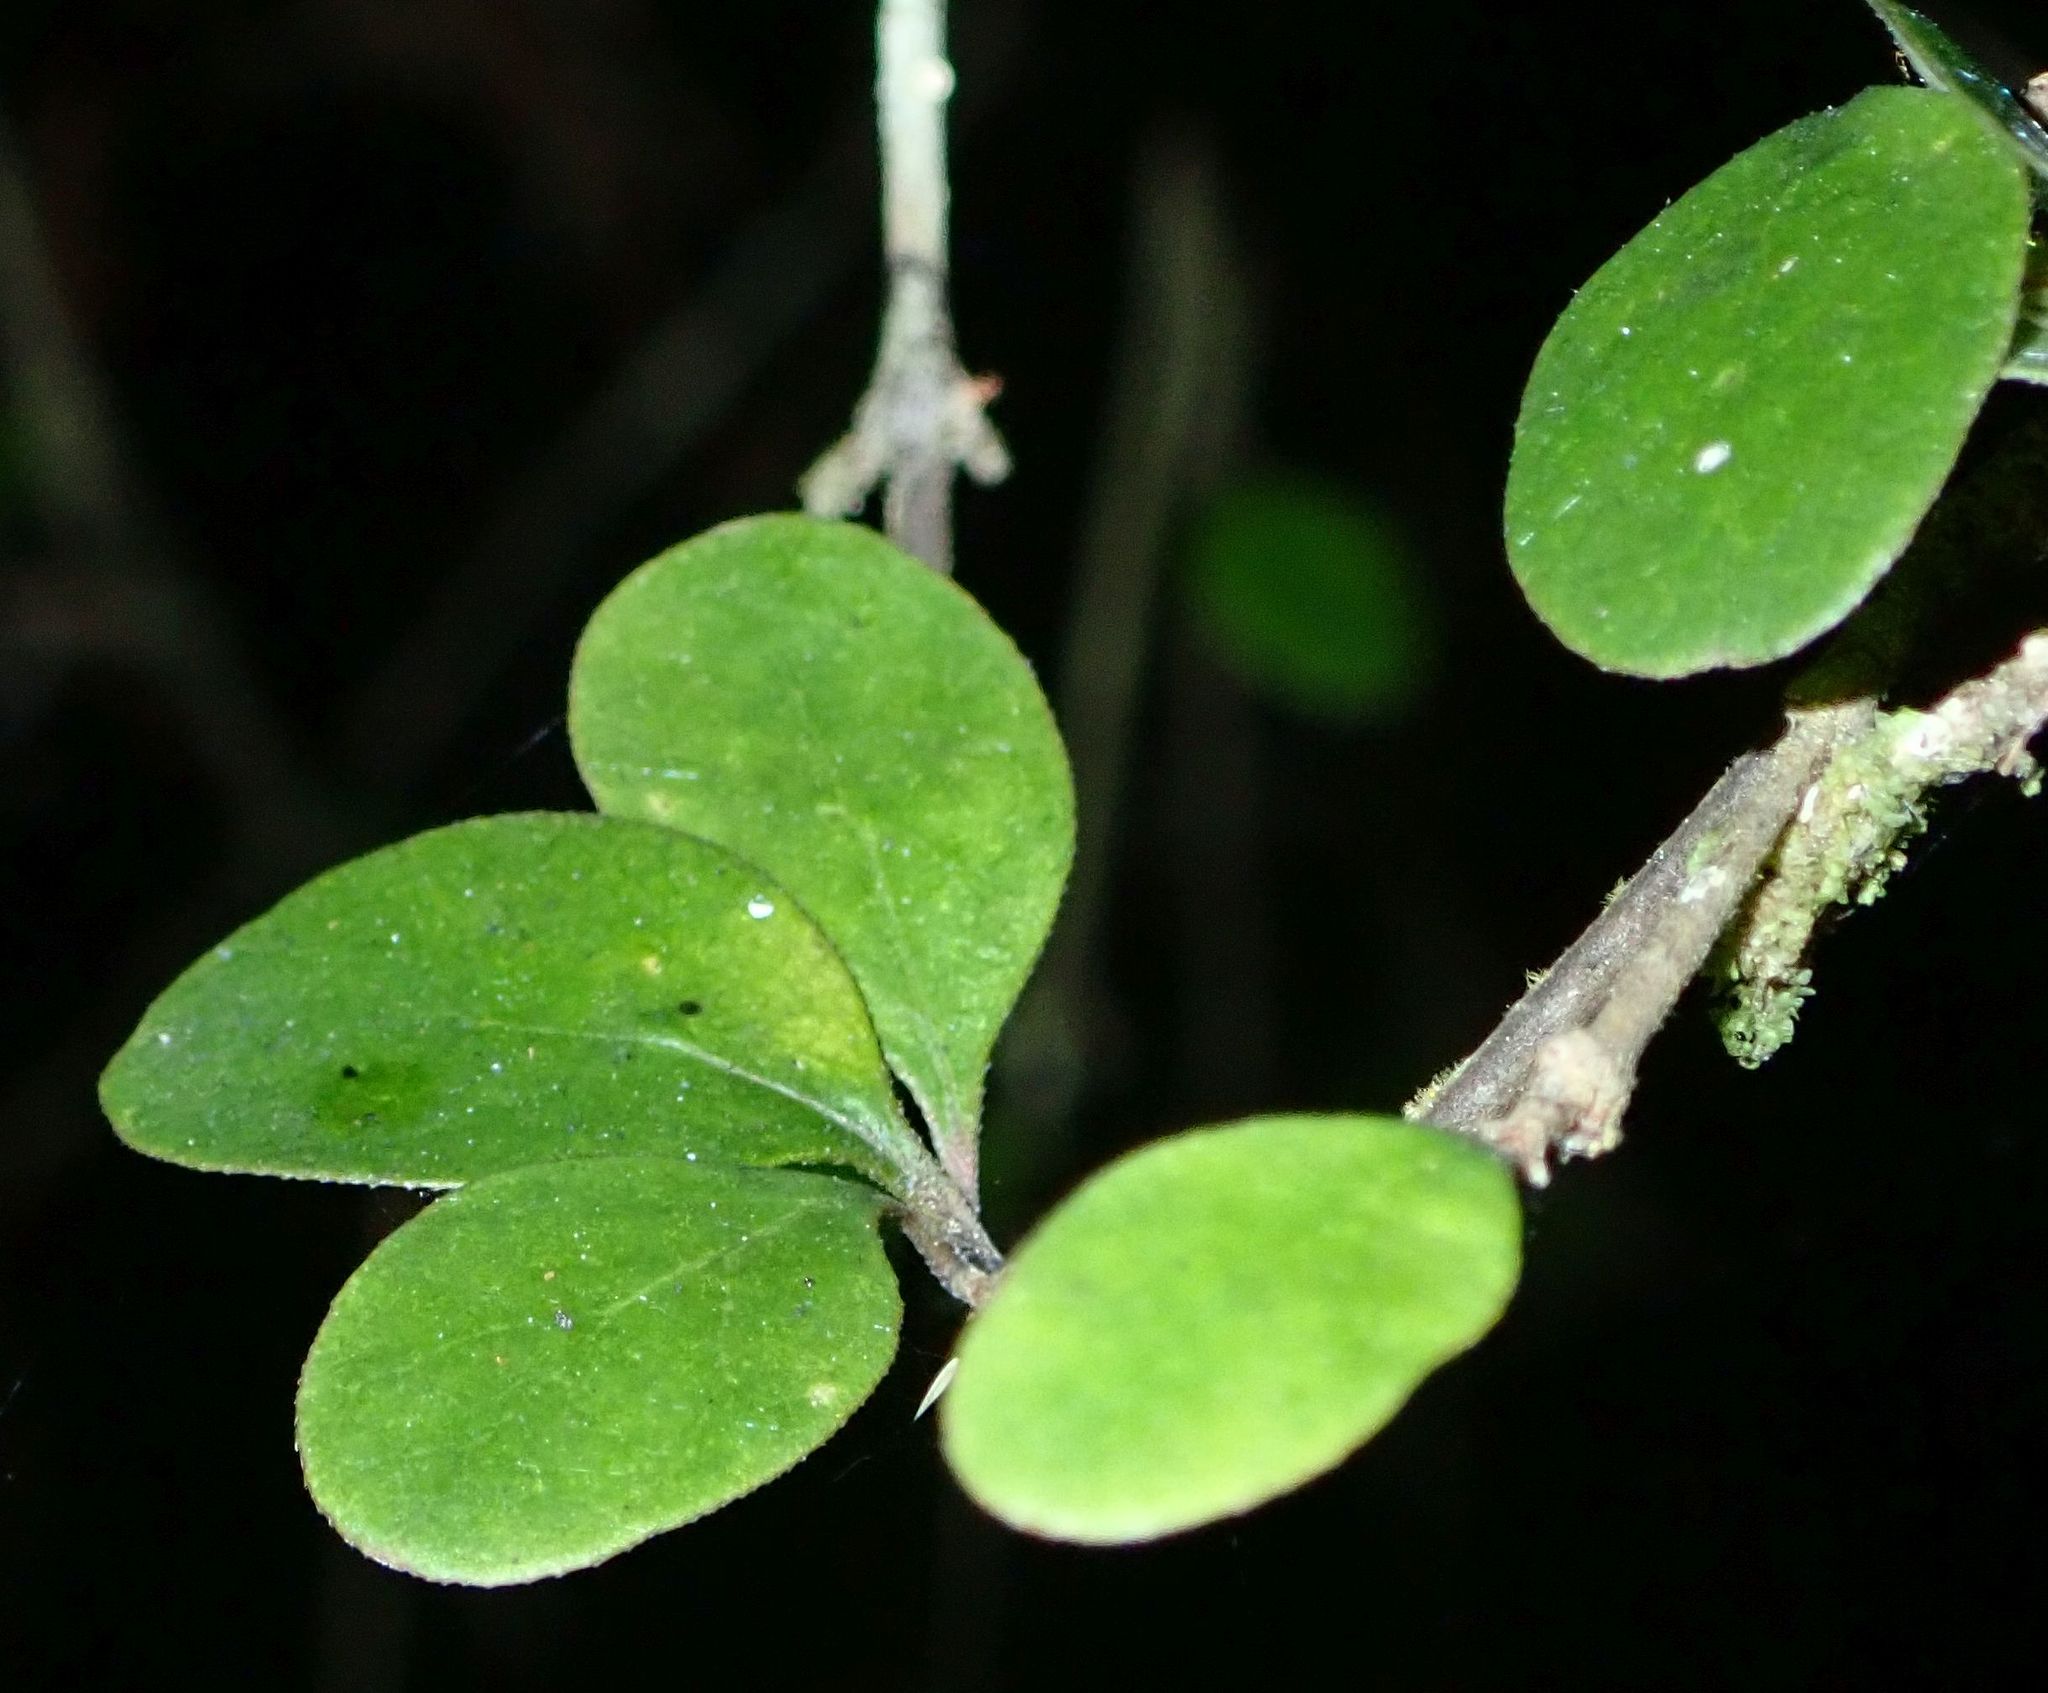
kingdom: Plantae
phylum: Tracheophyta
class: Magnoliopsida
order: Gentianales
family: Rubiaceae
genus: Coprosma
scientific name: Coprosma crassifolia
